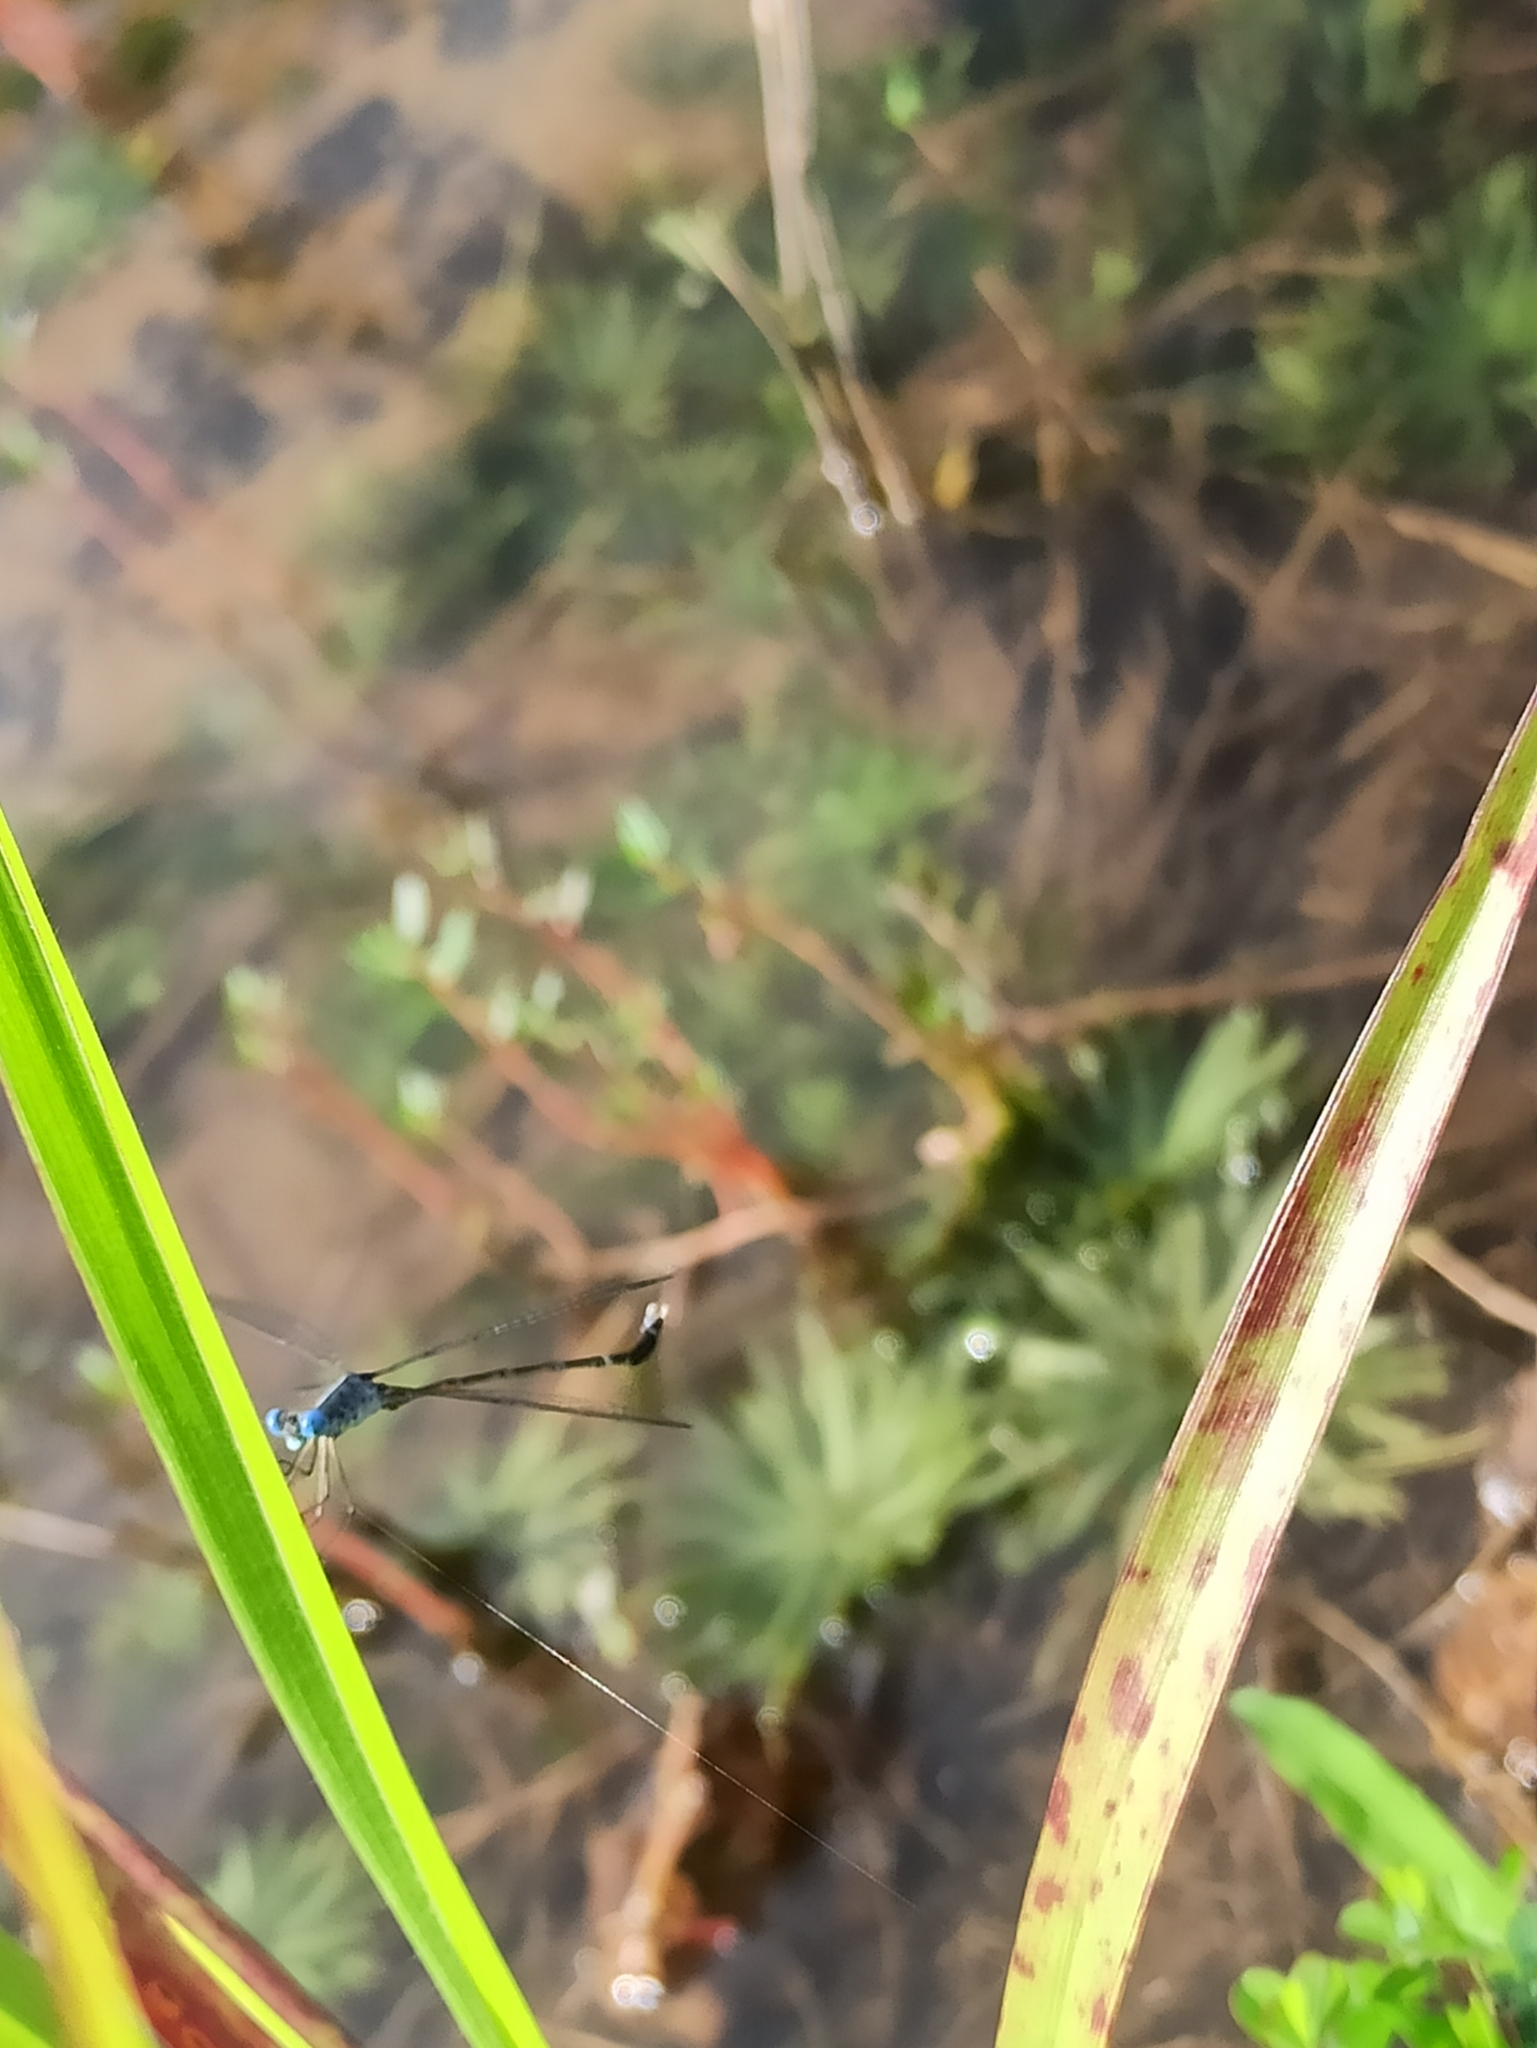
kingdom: Animalia
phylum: Arthropoda
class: Insecta
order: Odonata
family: Lestidae
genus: Lestes
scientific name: Lestes praemorsus
